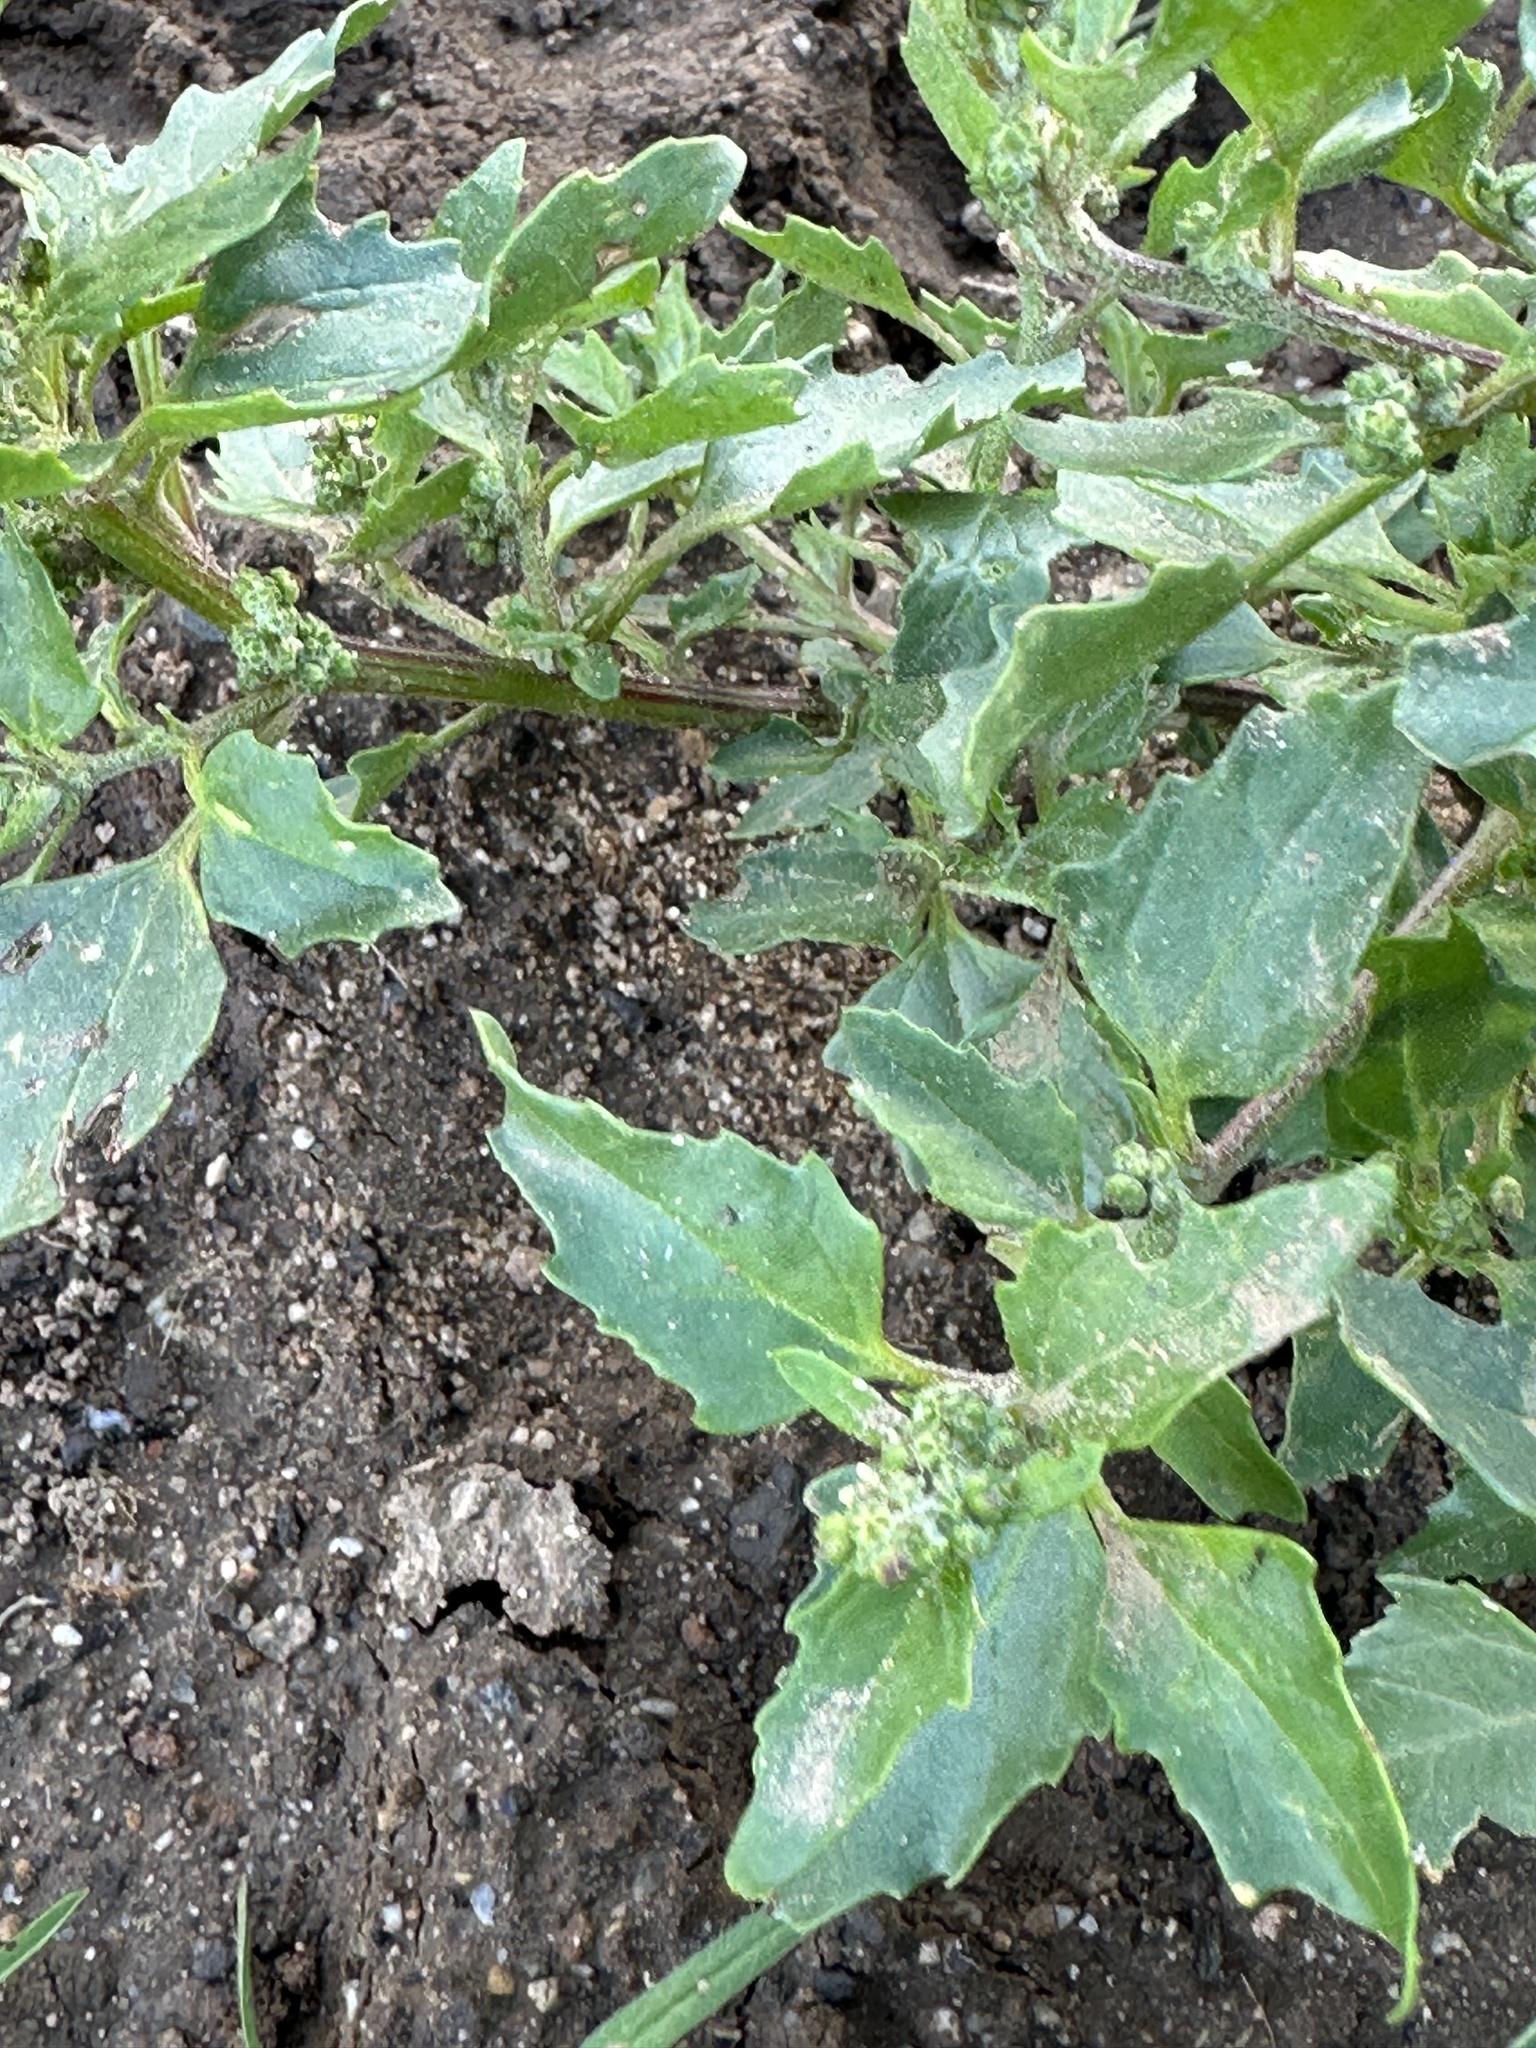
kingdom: Plantae
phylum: Tracheophyta
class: Magnoliopsida
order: Caryophyllales
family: Amaranthaceae
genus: Chenopodiastrum
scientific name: Chenopodiastrum murale
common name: Sowbane
